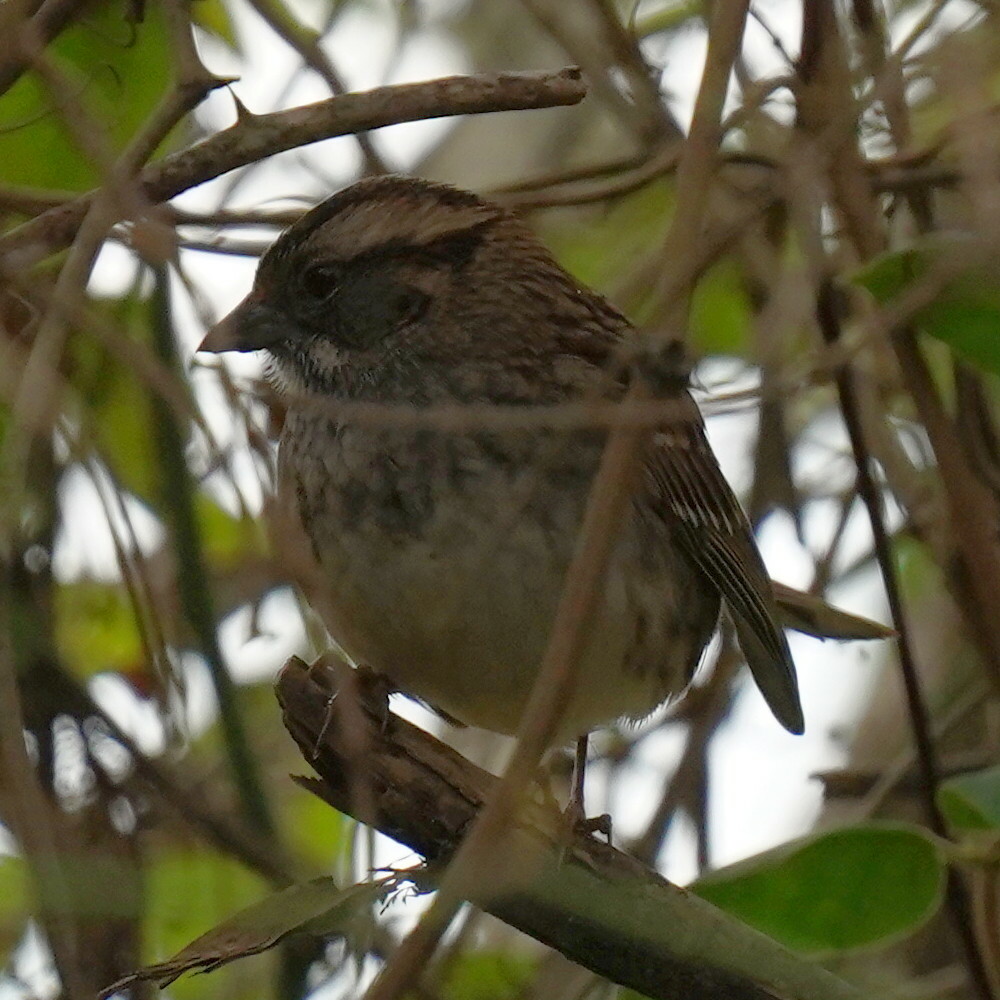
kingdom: Animalia
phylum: Chordata
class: Aves
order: Passeriformes
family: Passerellidae
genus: Zonotrichia
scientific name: Zonotrichia albicollis
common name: White-throated sparrow
